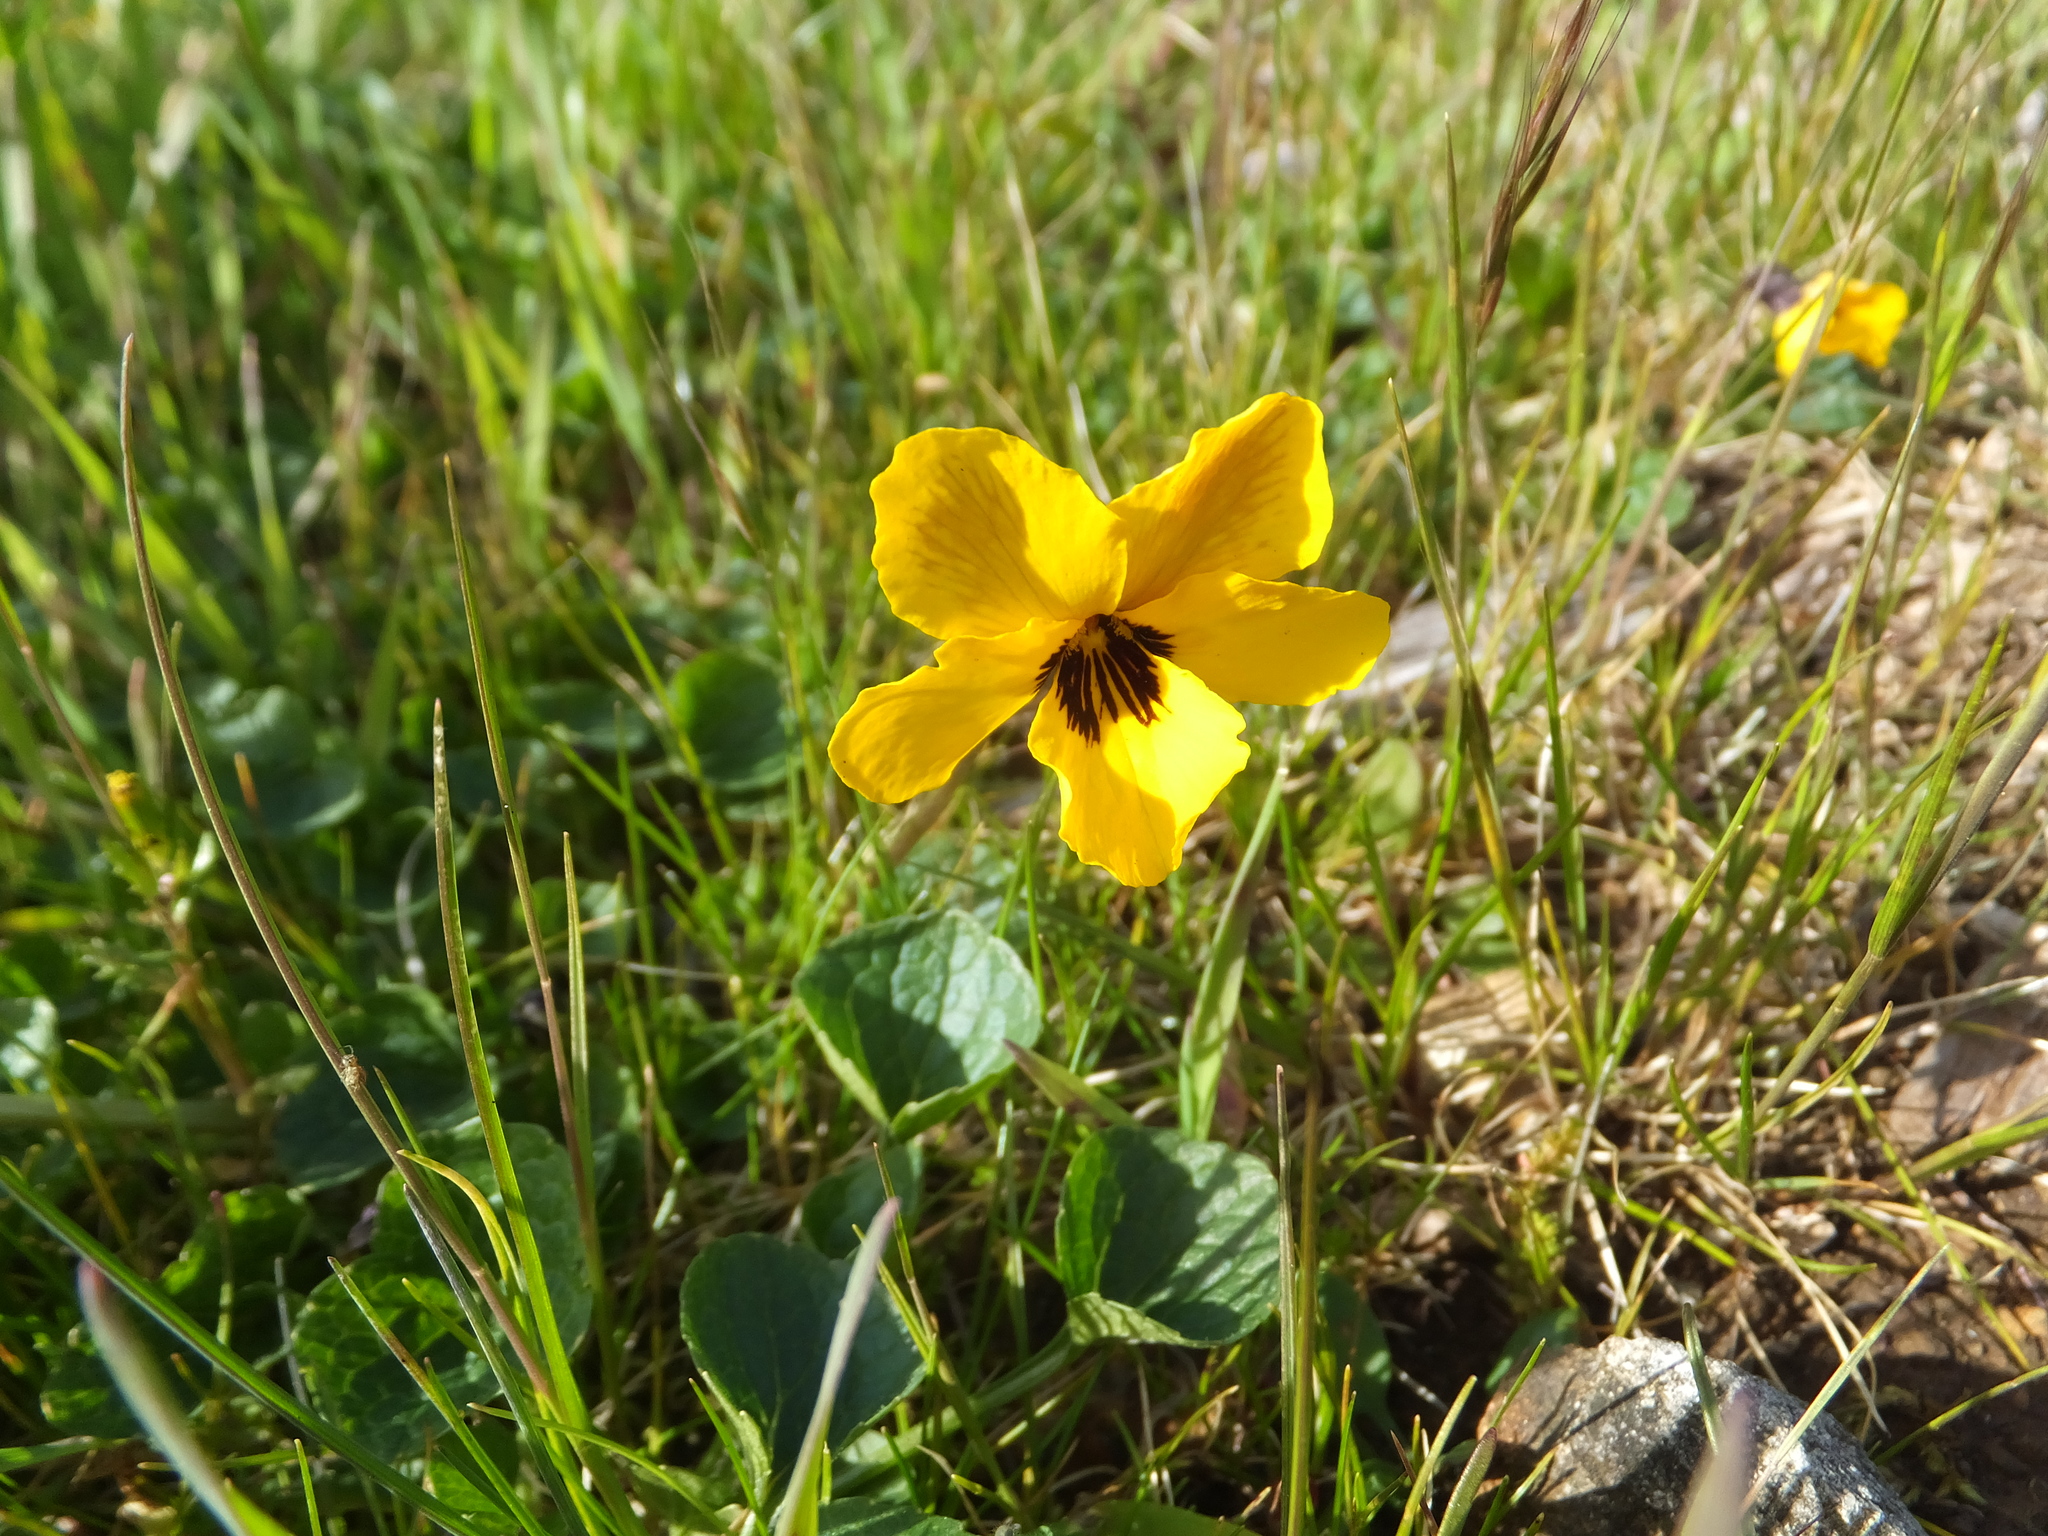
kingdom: Plantae
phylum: Tracheophyta
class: Magnoliopsida
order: Malpighiales
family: Violaceae
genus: Viola
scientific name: Viola pedunculata
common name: California golden violet
